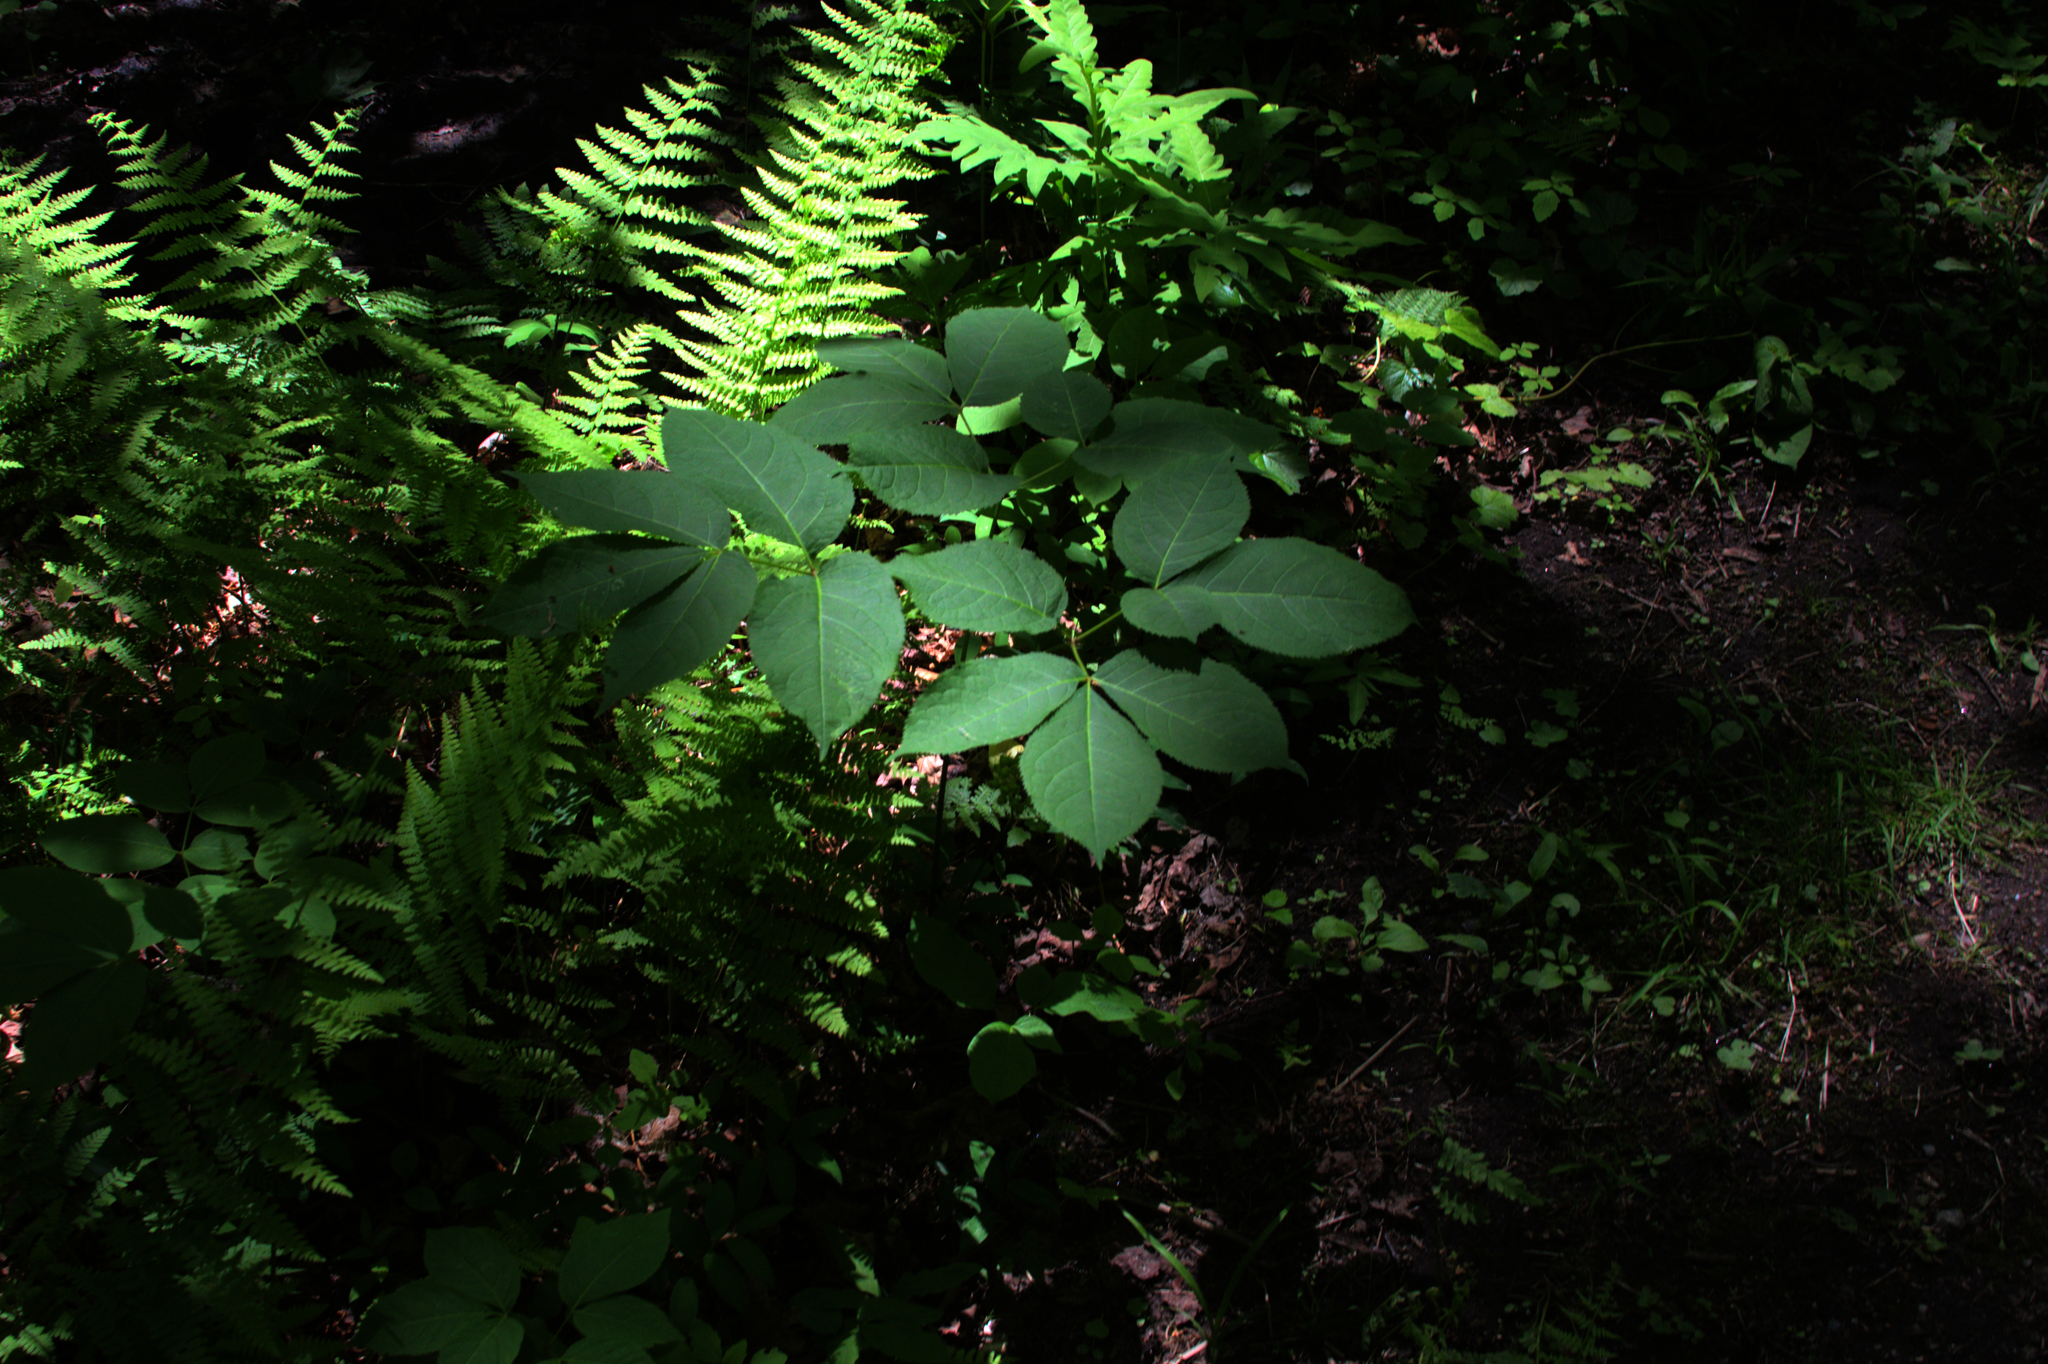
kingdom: Plantae
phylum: Tracheophyta
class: Magnoliopsida
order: Apiales
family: Araliaceae
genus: Aralia
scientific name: Aralia nudicaulis
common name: Wild sarsaparilla
